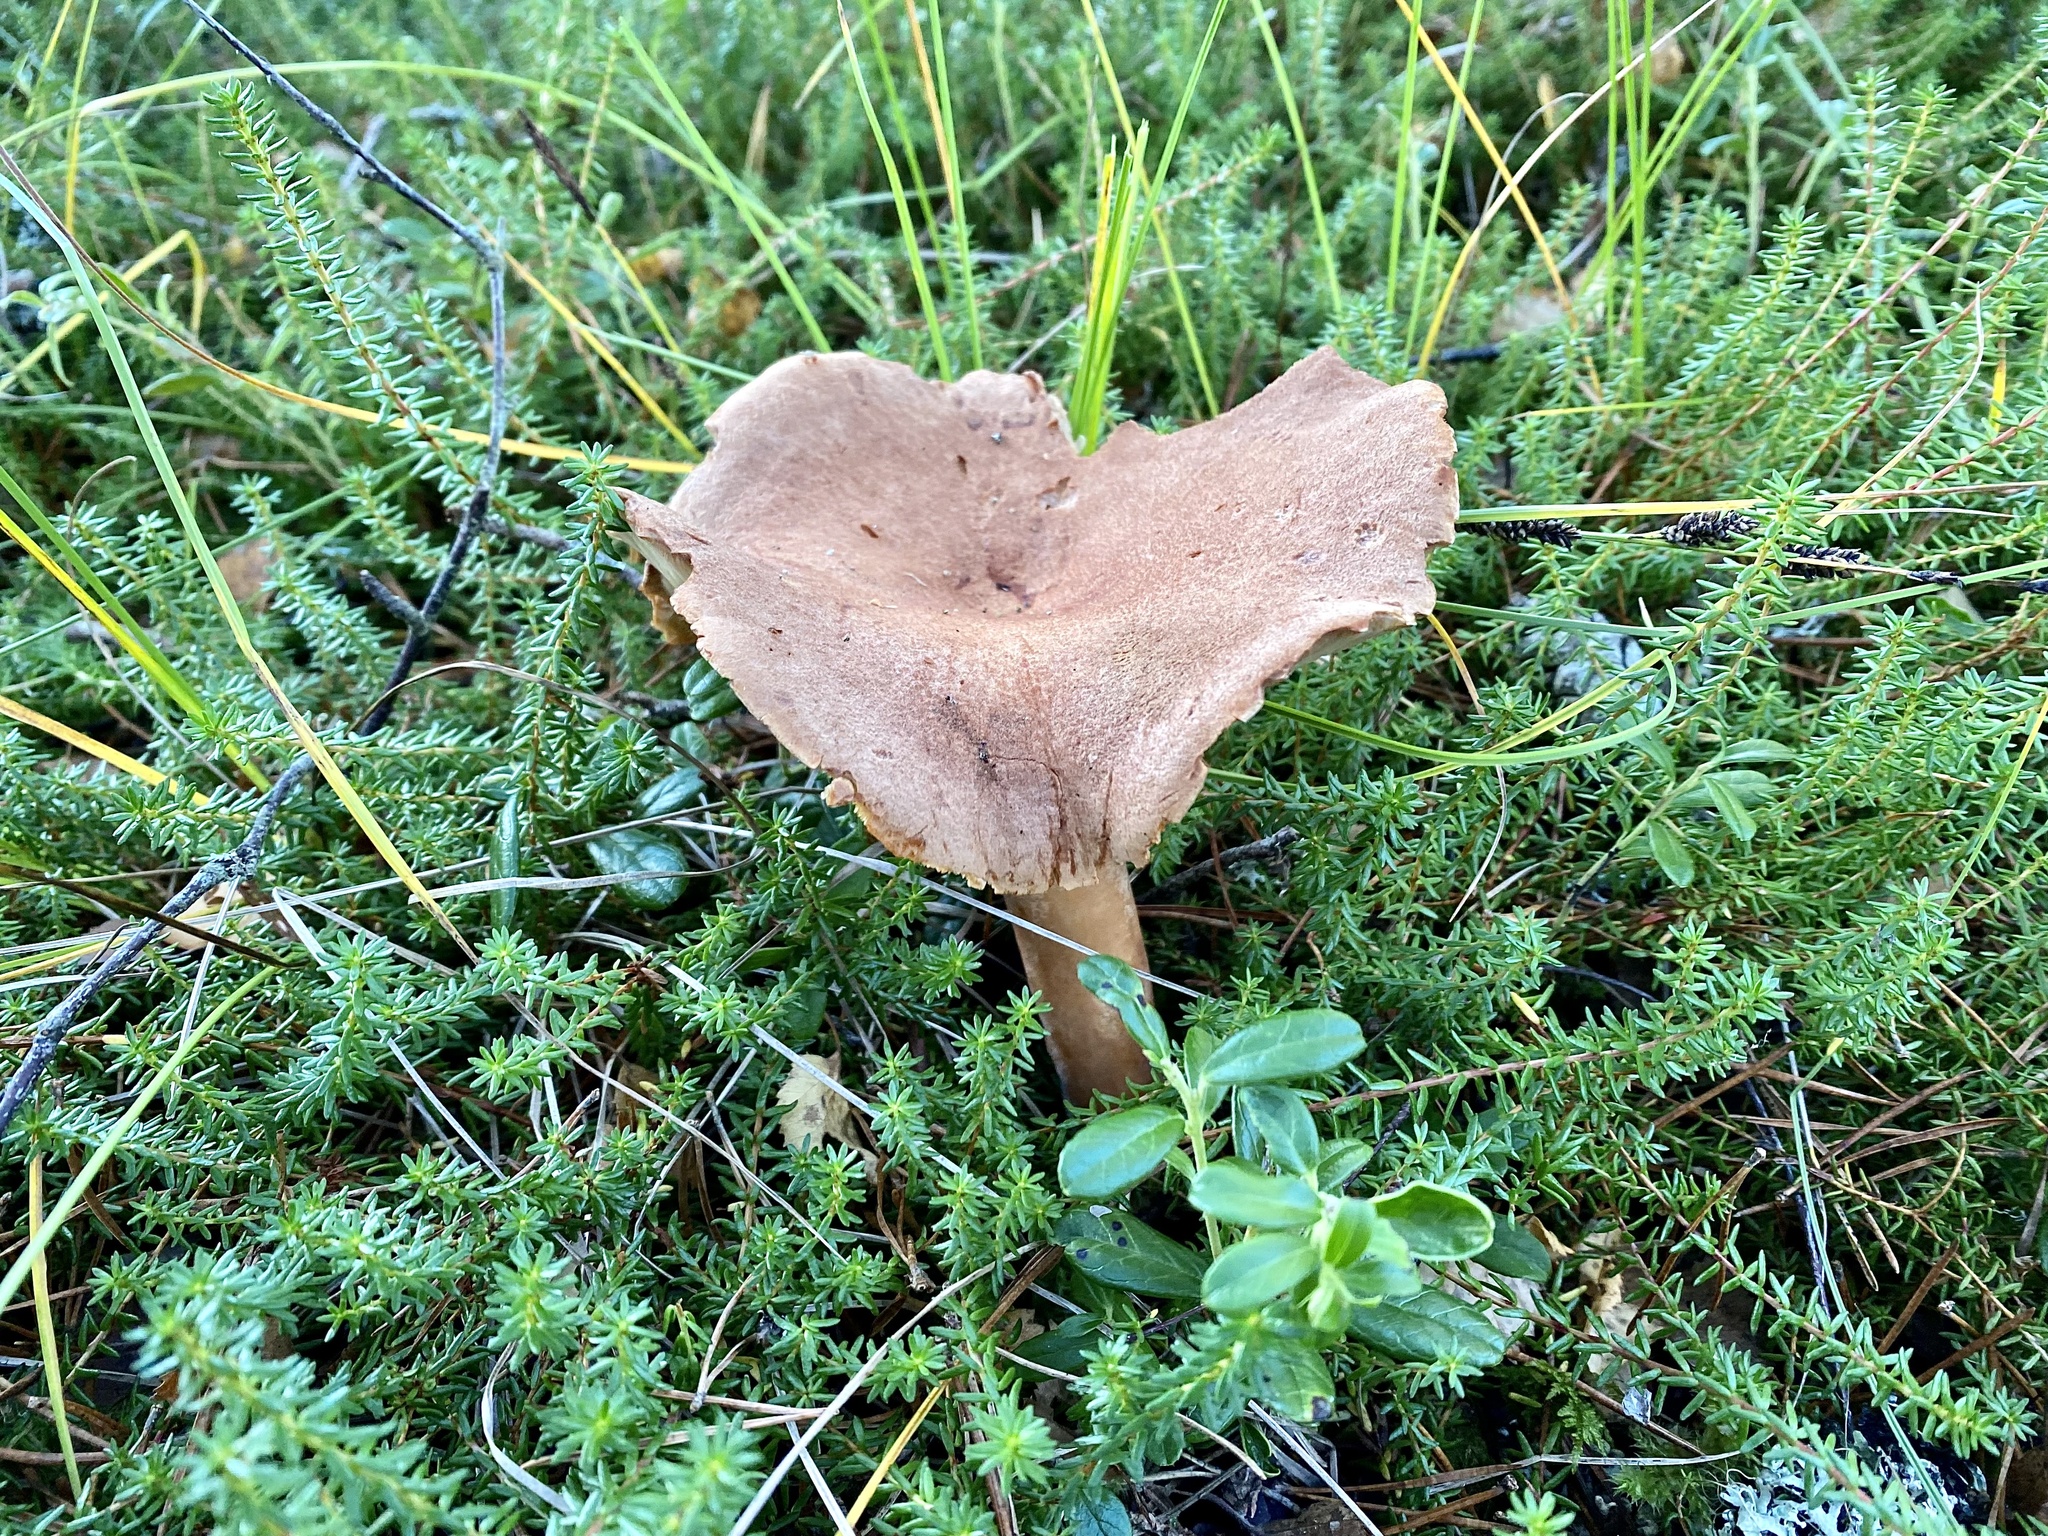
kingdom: Fungi
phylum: Basidiomycota
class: Agaricomycetes
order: Russulales
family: Russulaceae
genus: Lactarius
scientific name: Lactarius helvus
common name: Fenugreek milkcap
